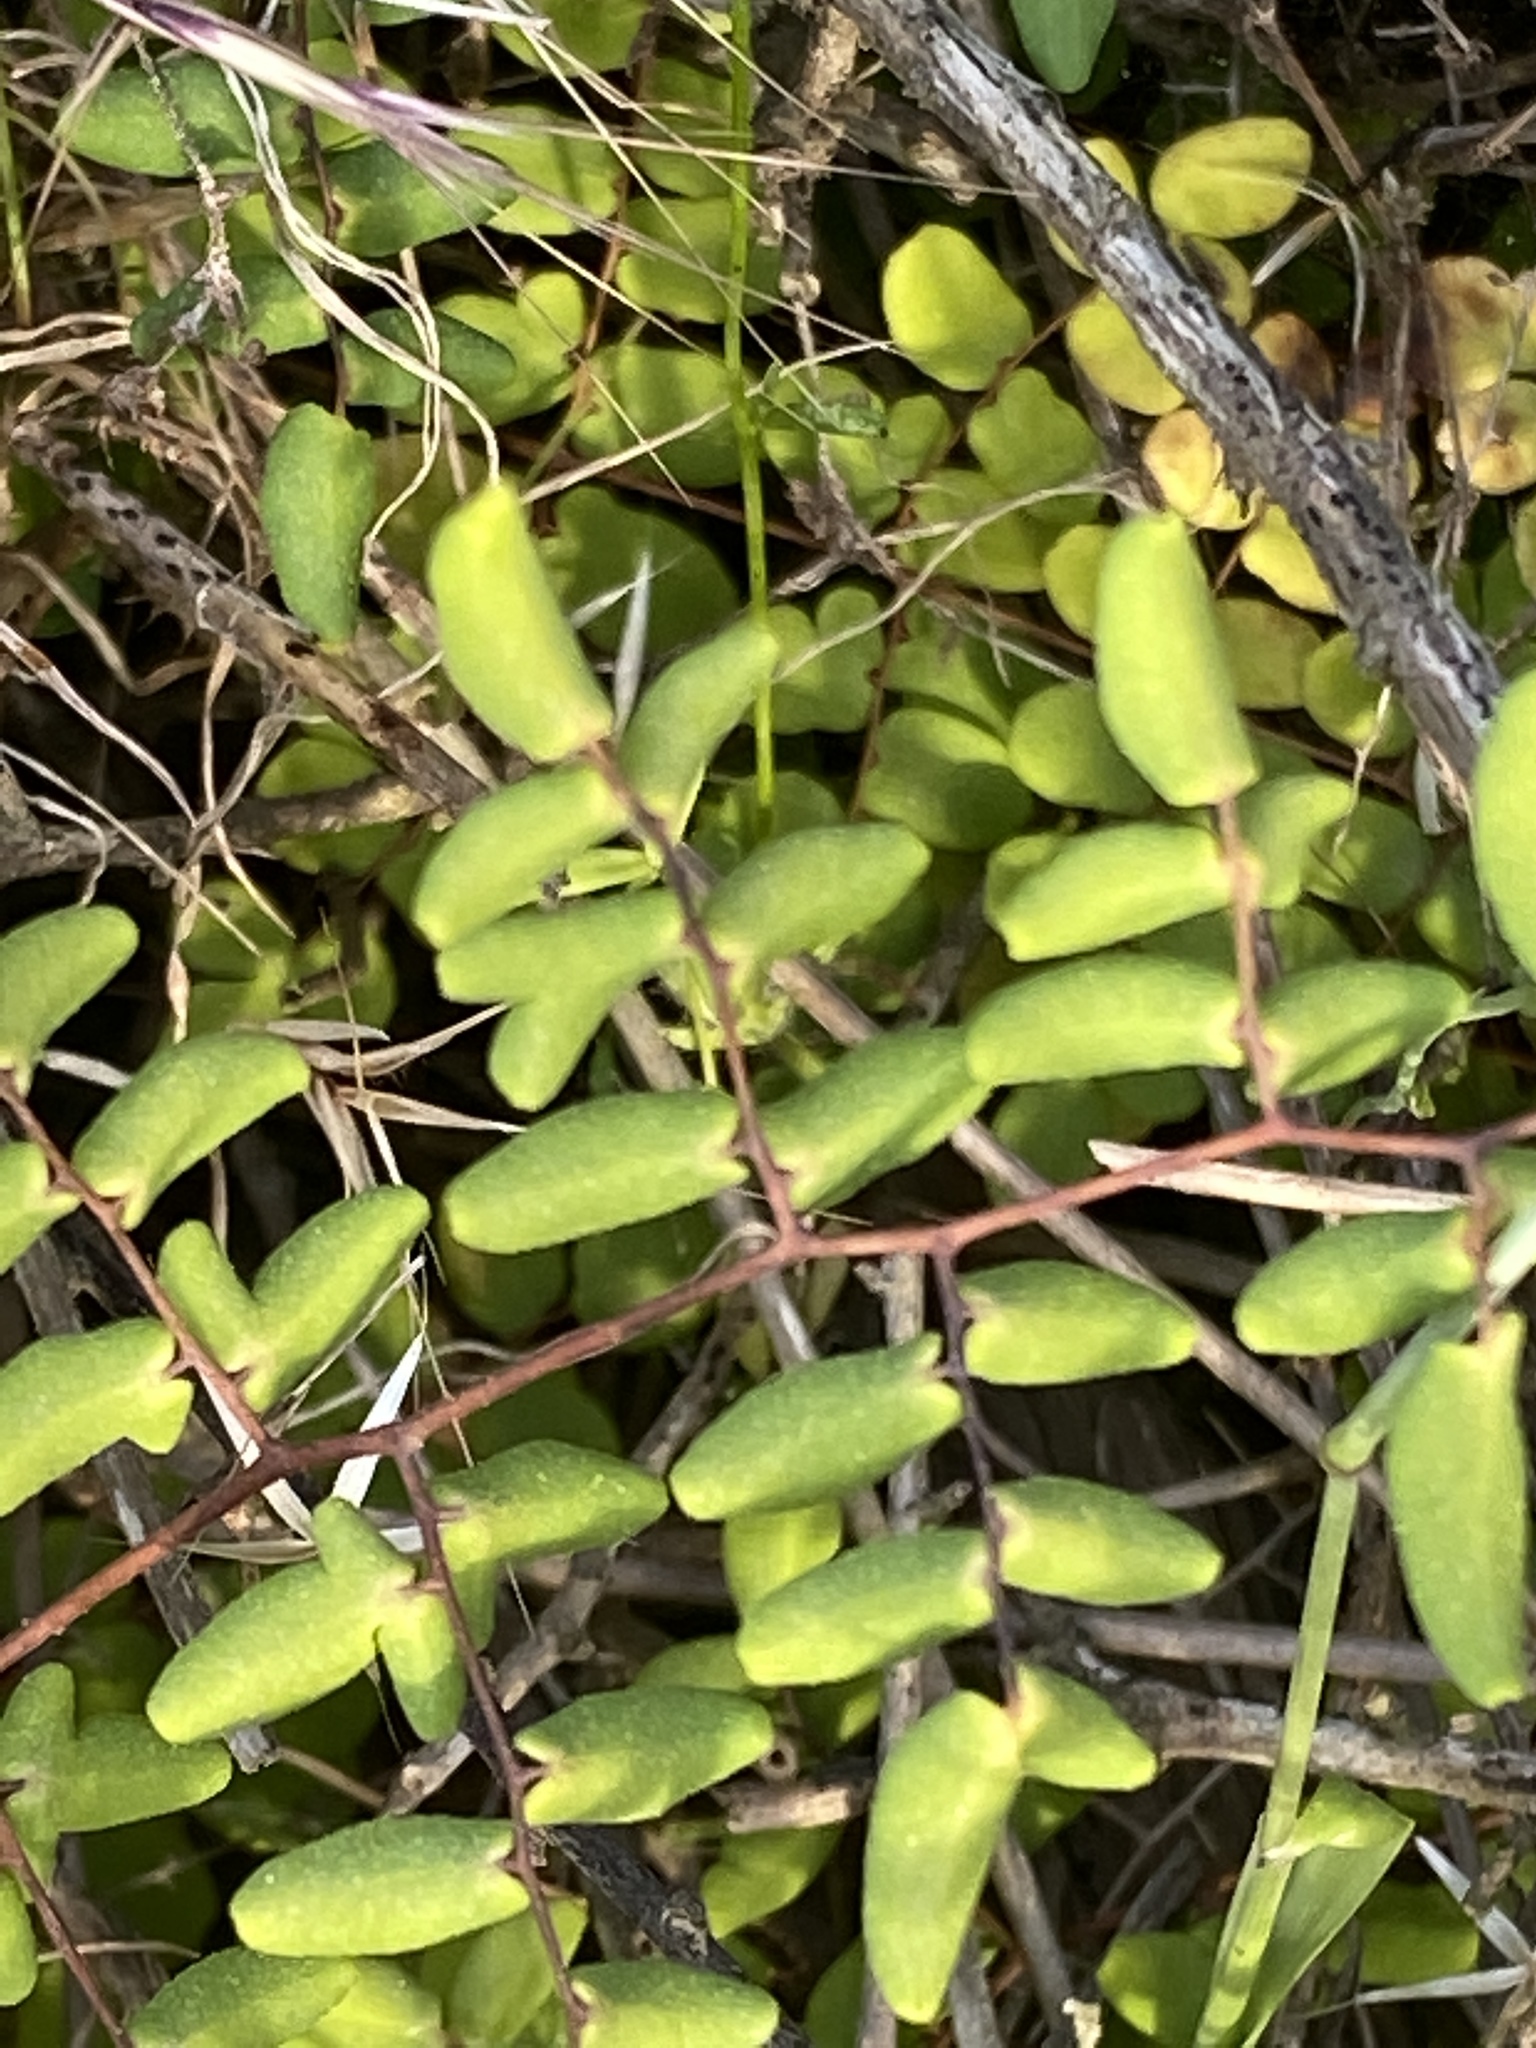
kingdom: Plantae
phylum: Tracheophyta
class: Polypodiopsida
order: Polypodiales
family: Pteridaceae
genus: Pellaea
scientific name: Pellaea andromedifolia
